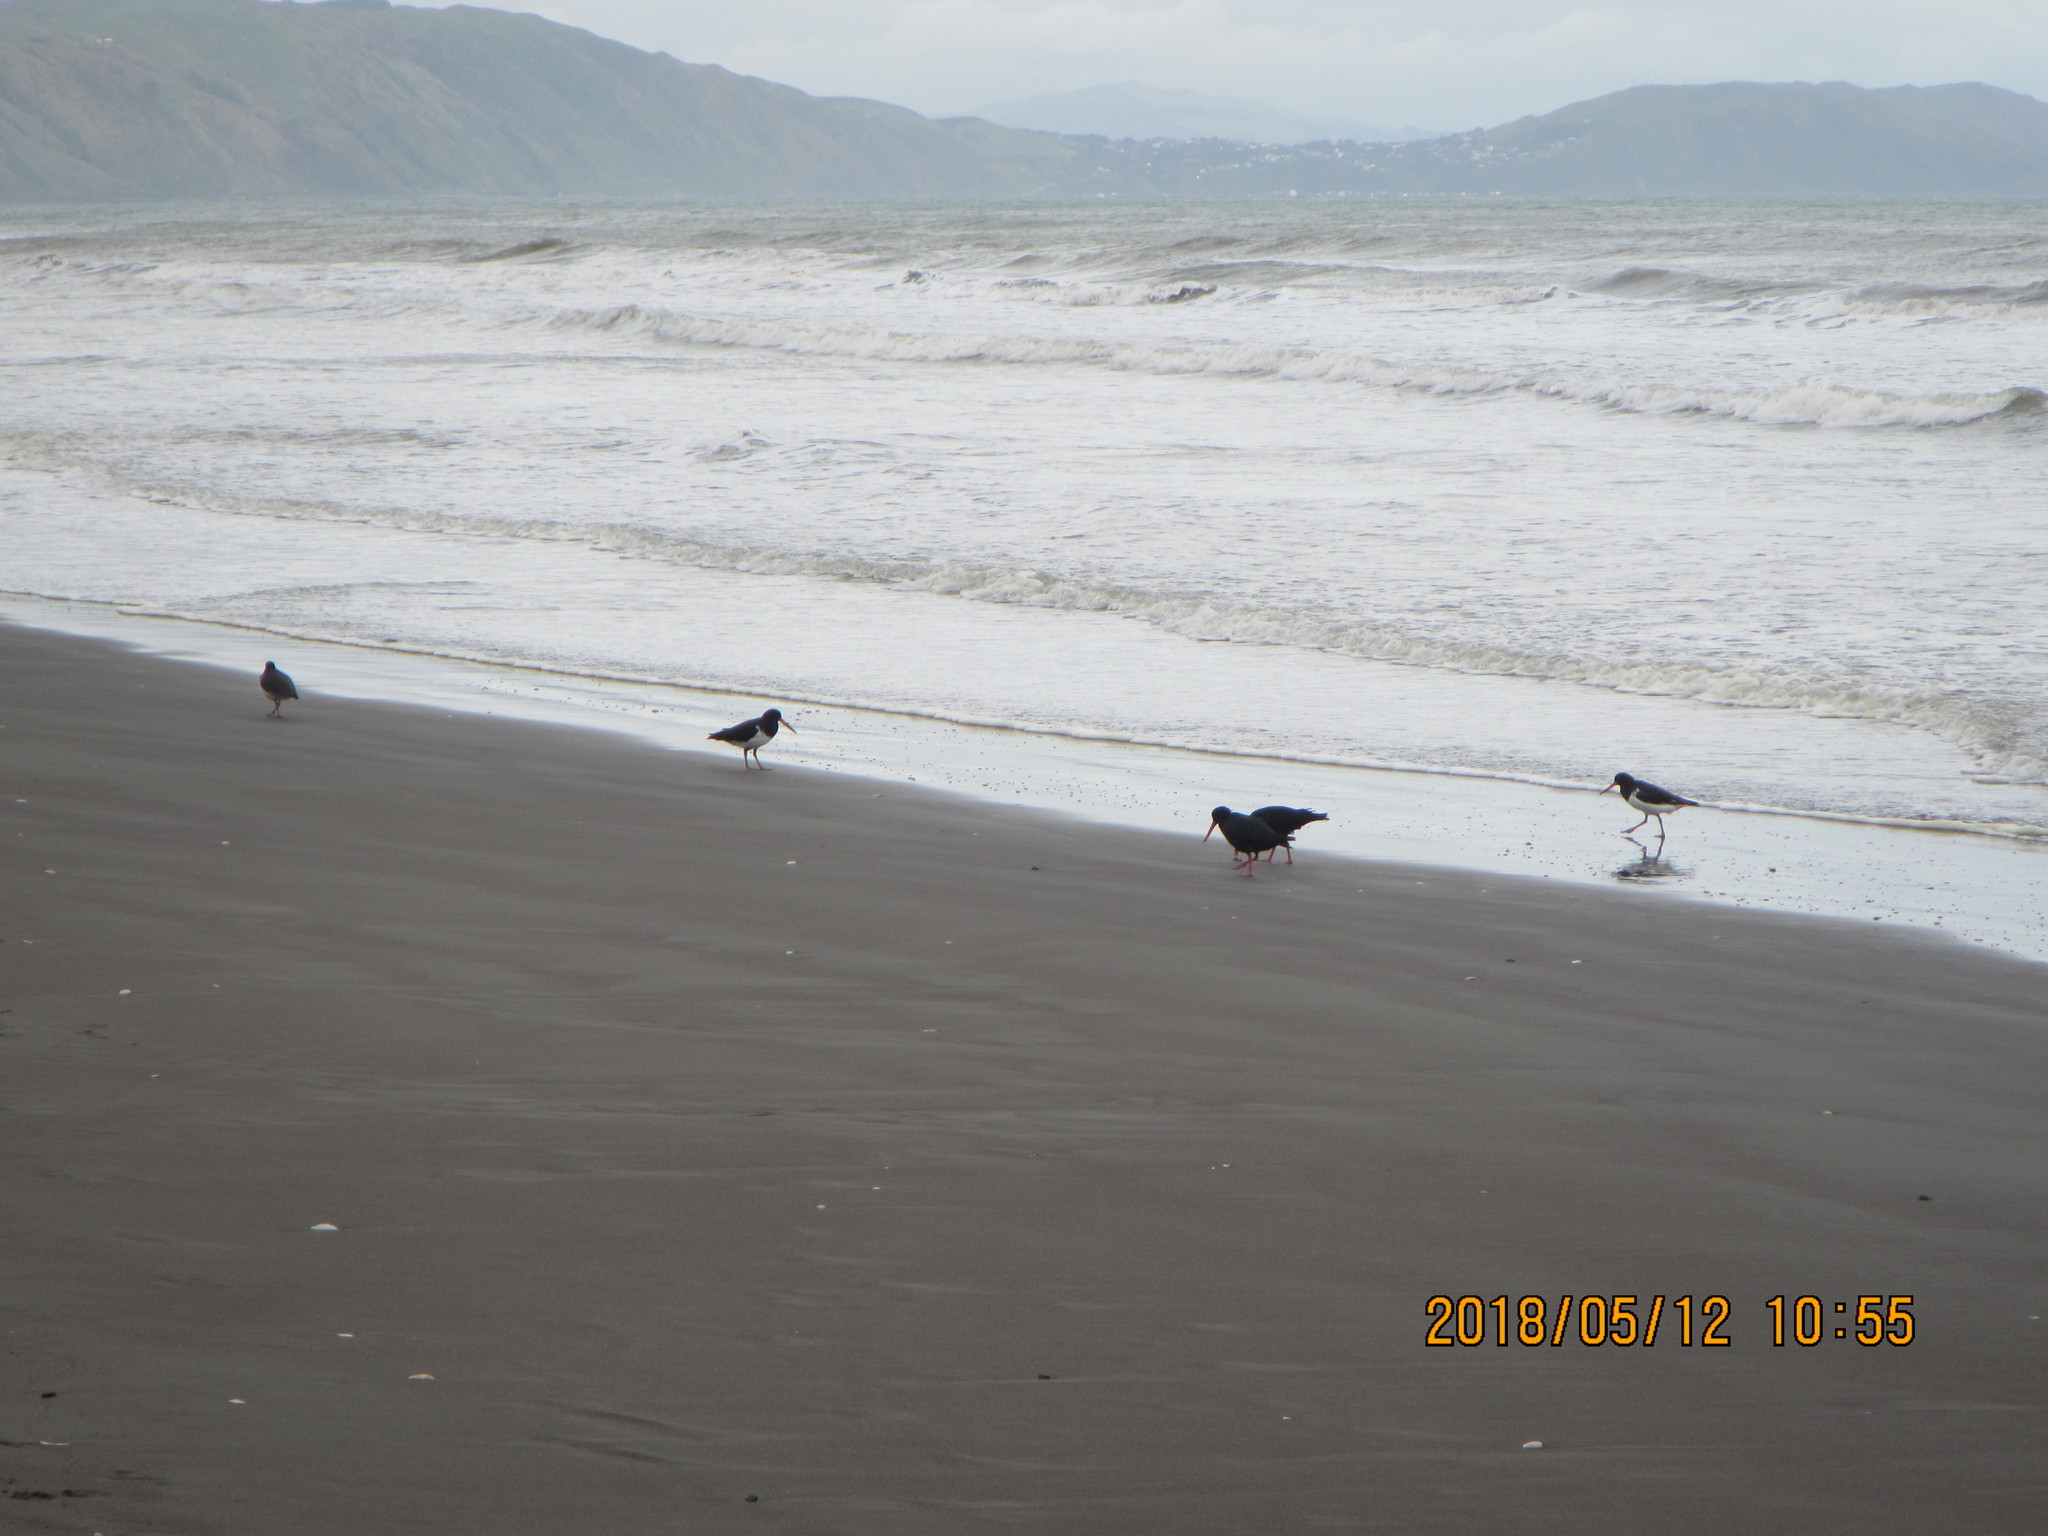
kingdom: Animalia
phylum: Chordata
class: Aves
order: Charadriiformes
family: Haematopodidae
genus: Haematopus
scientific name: Haematopus unicolor
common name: Variable oystercatcher
